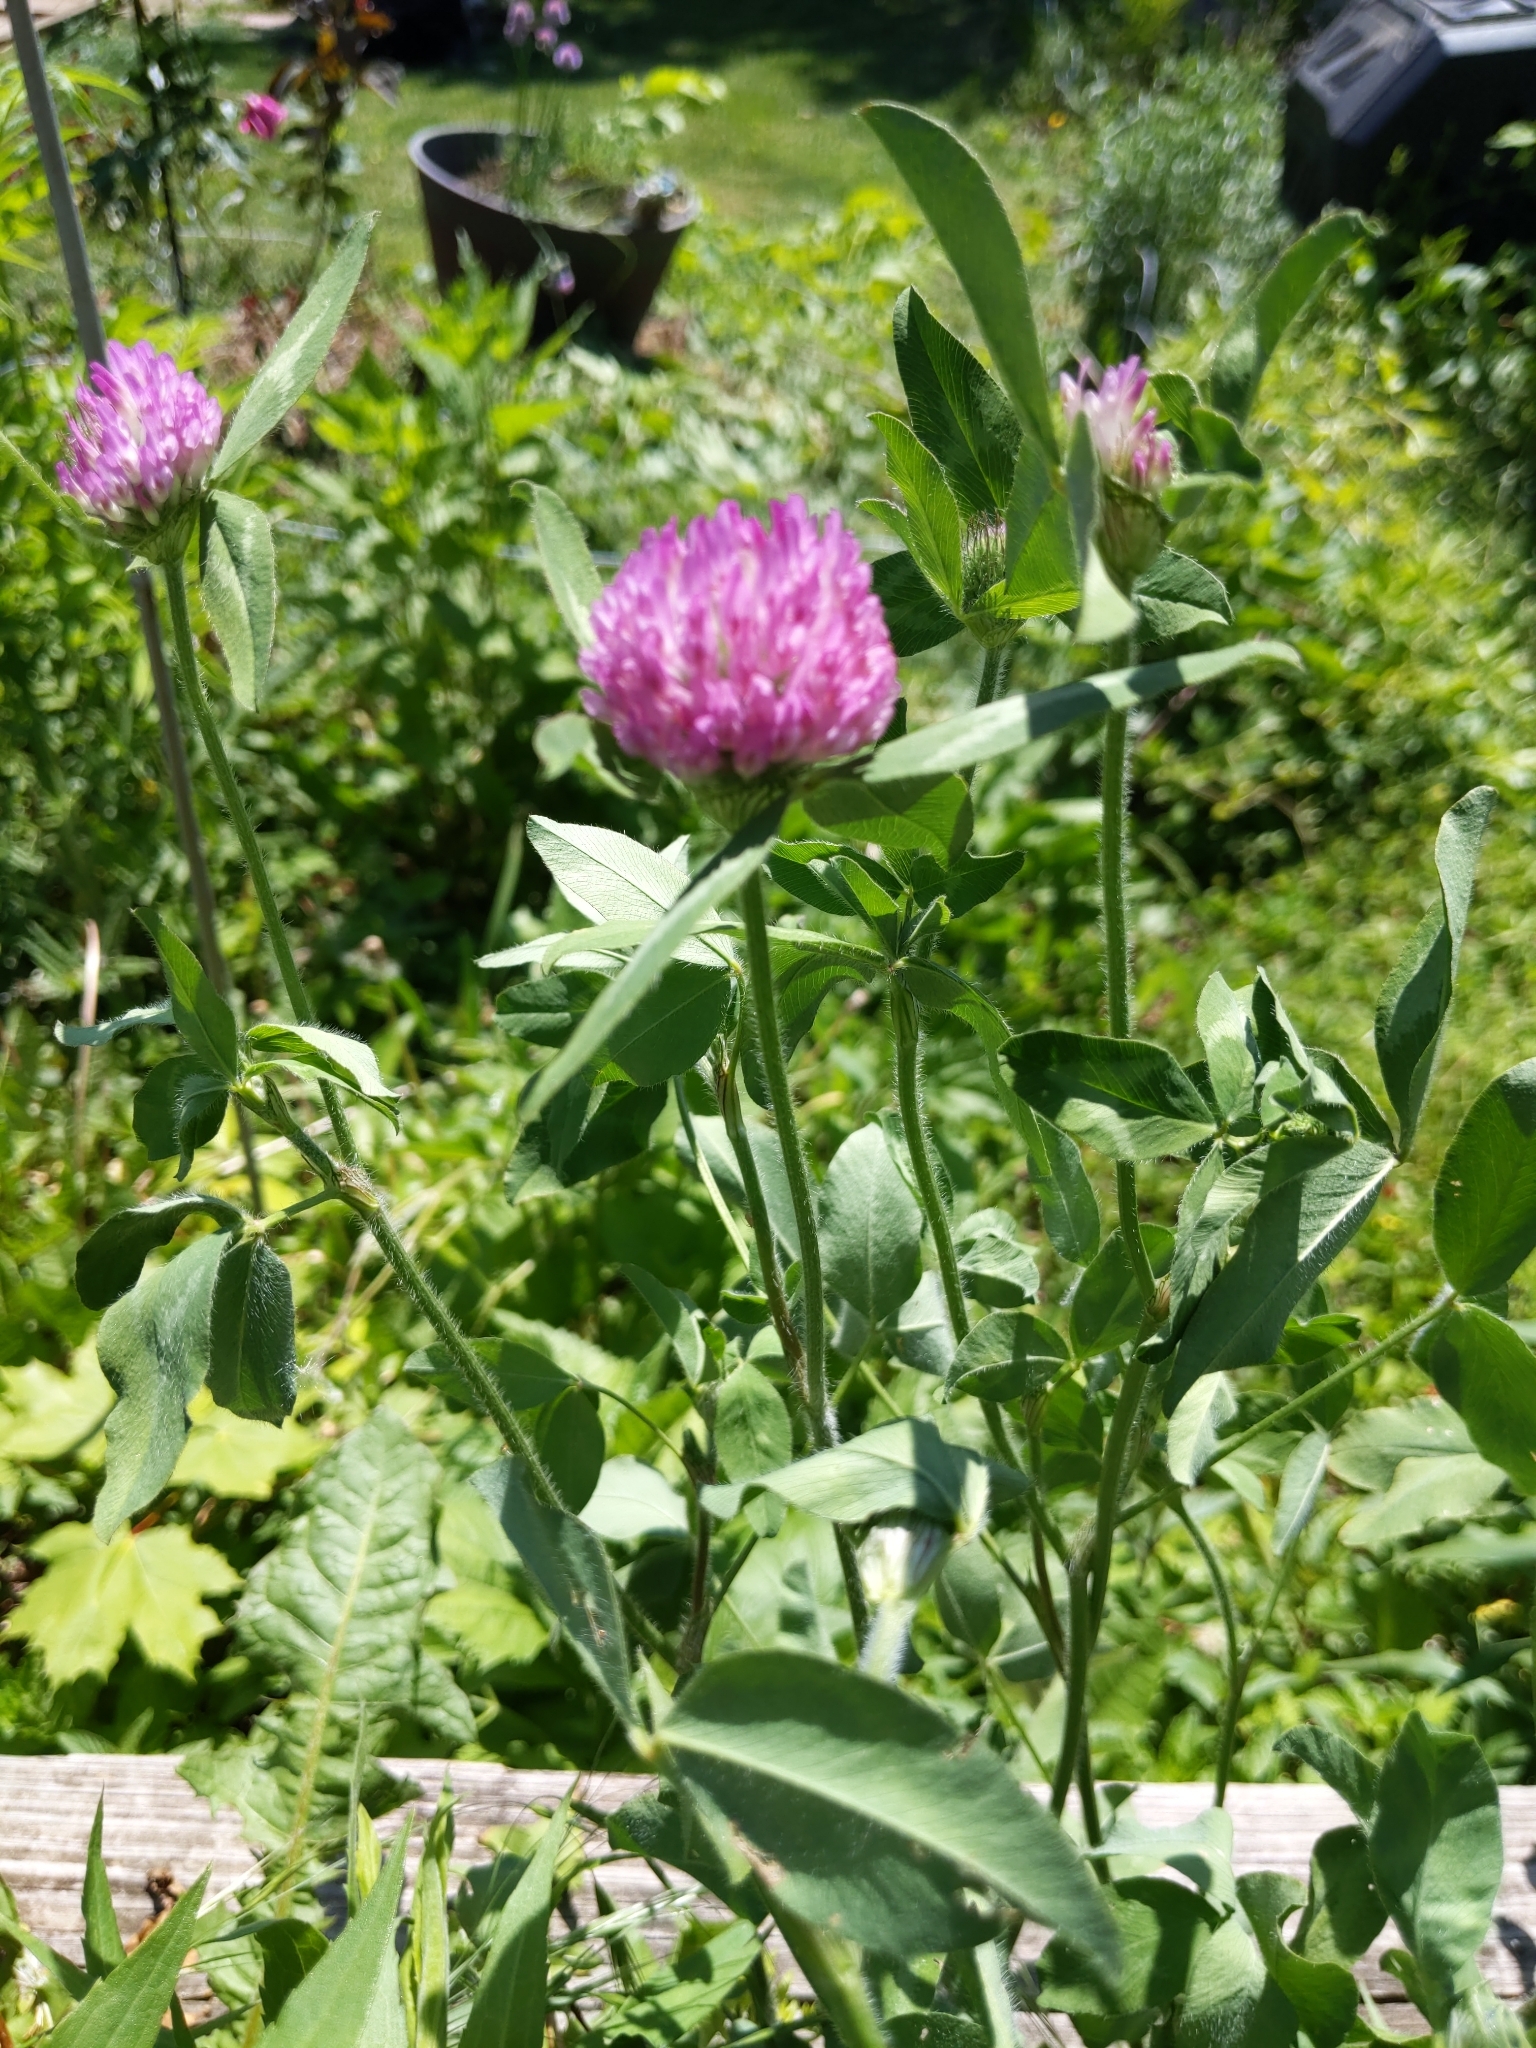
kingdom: Plantae
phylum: Tracheophyta
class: Magnoliopsida
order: Fabales
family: Fabaceae
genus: Trifolium
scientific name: Trifolium pratense
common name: Red clover
